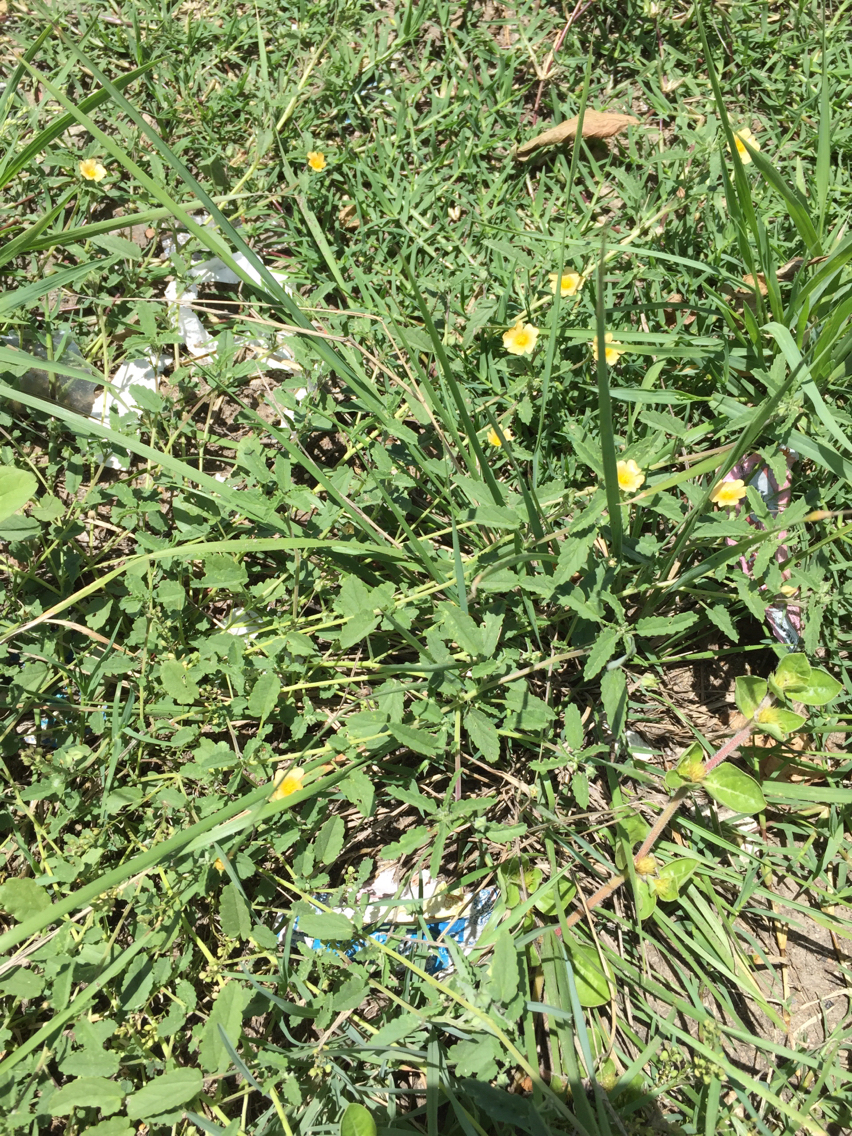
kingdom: Plantae
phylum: Tracheophyta
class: Magnoliopsida
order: Malvales
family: Malvaceae
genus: Sida
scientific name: Sida abutilifolia
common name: Spreading fanpetals
